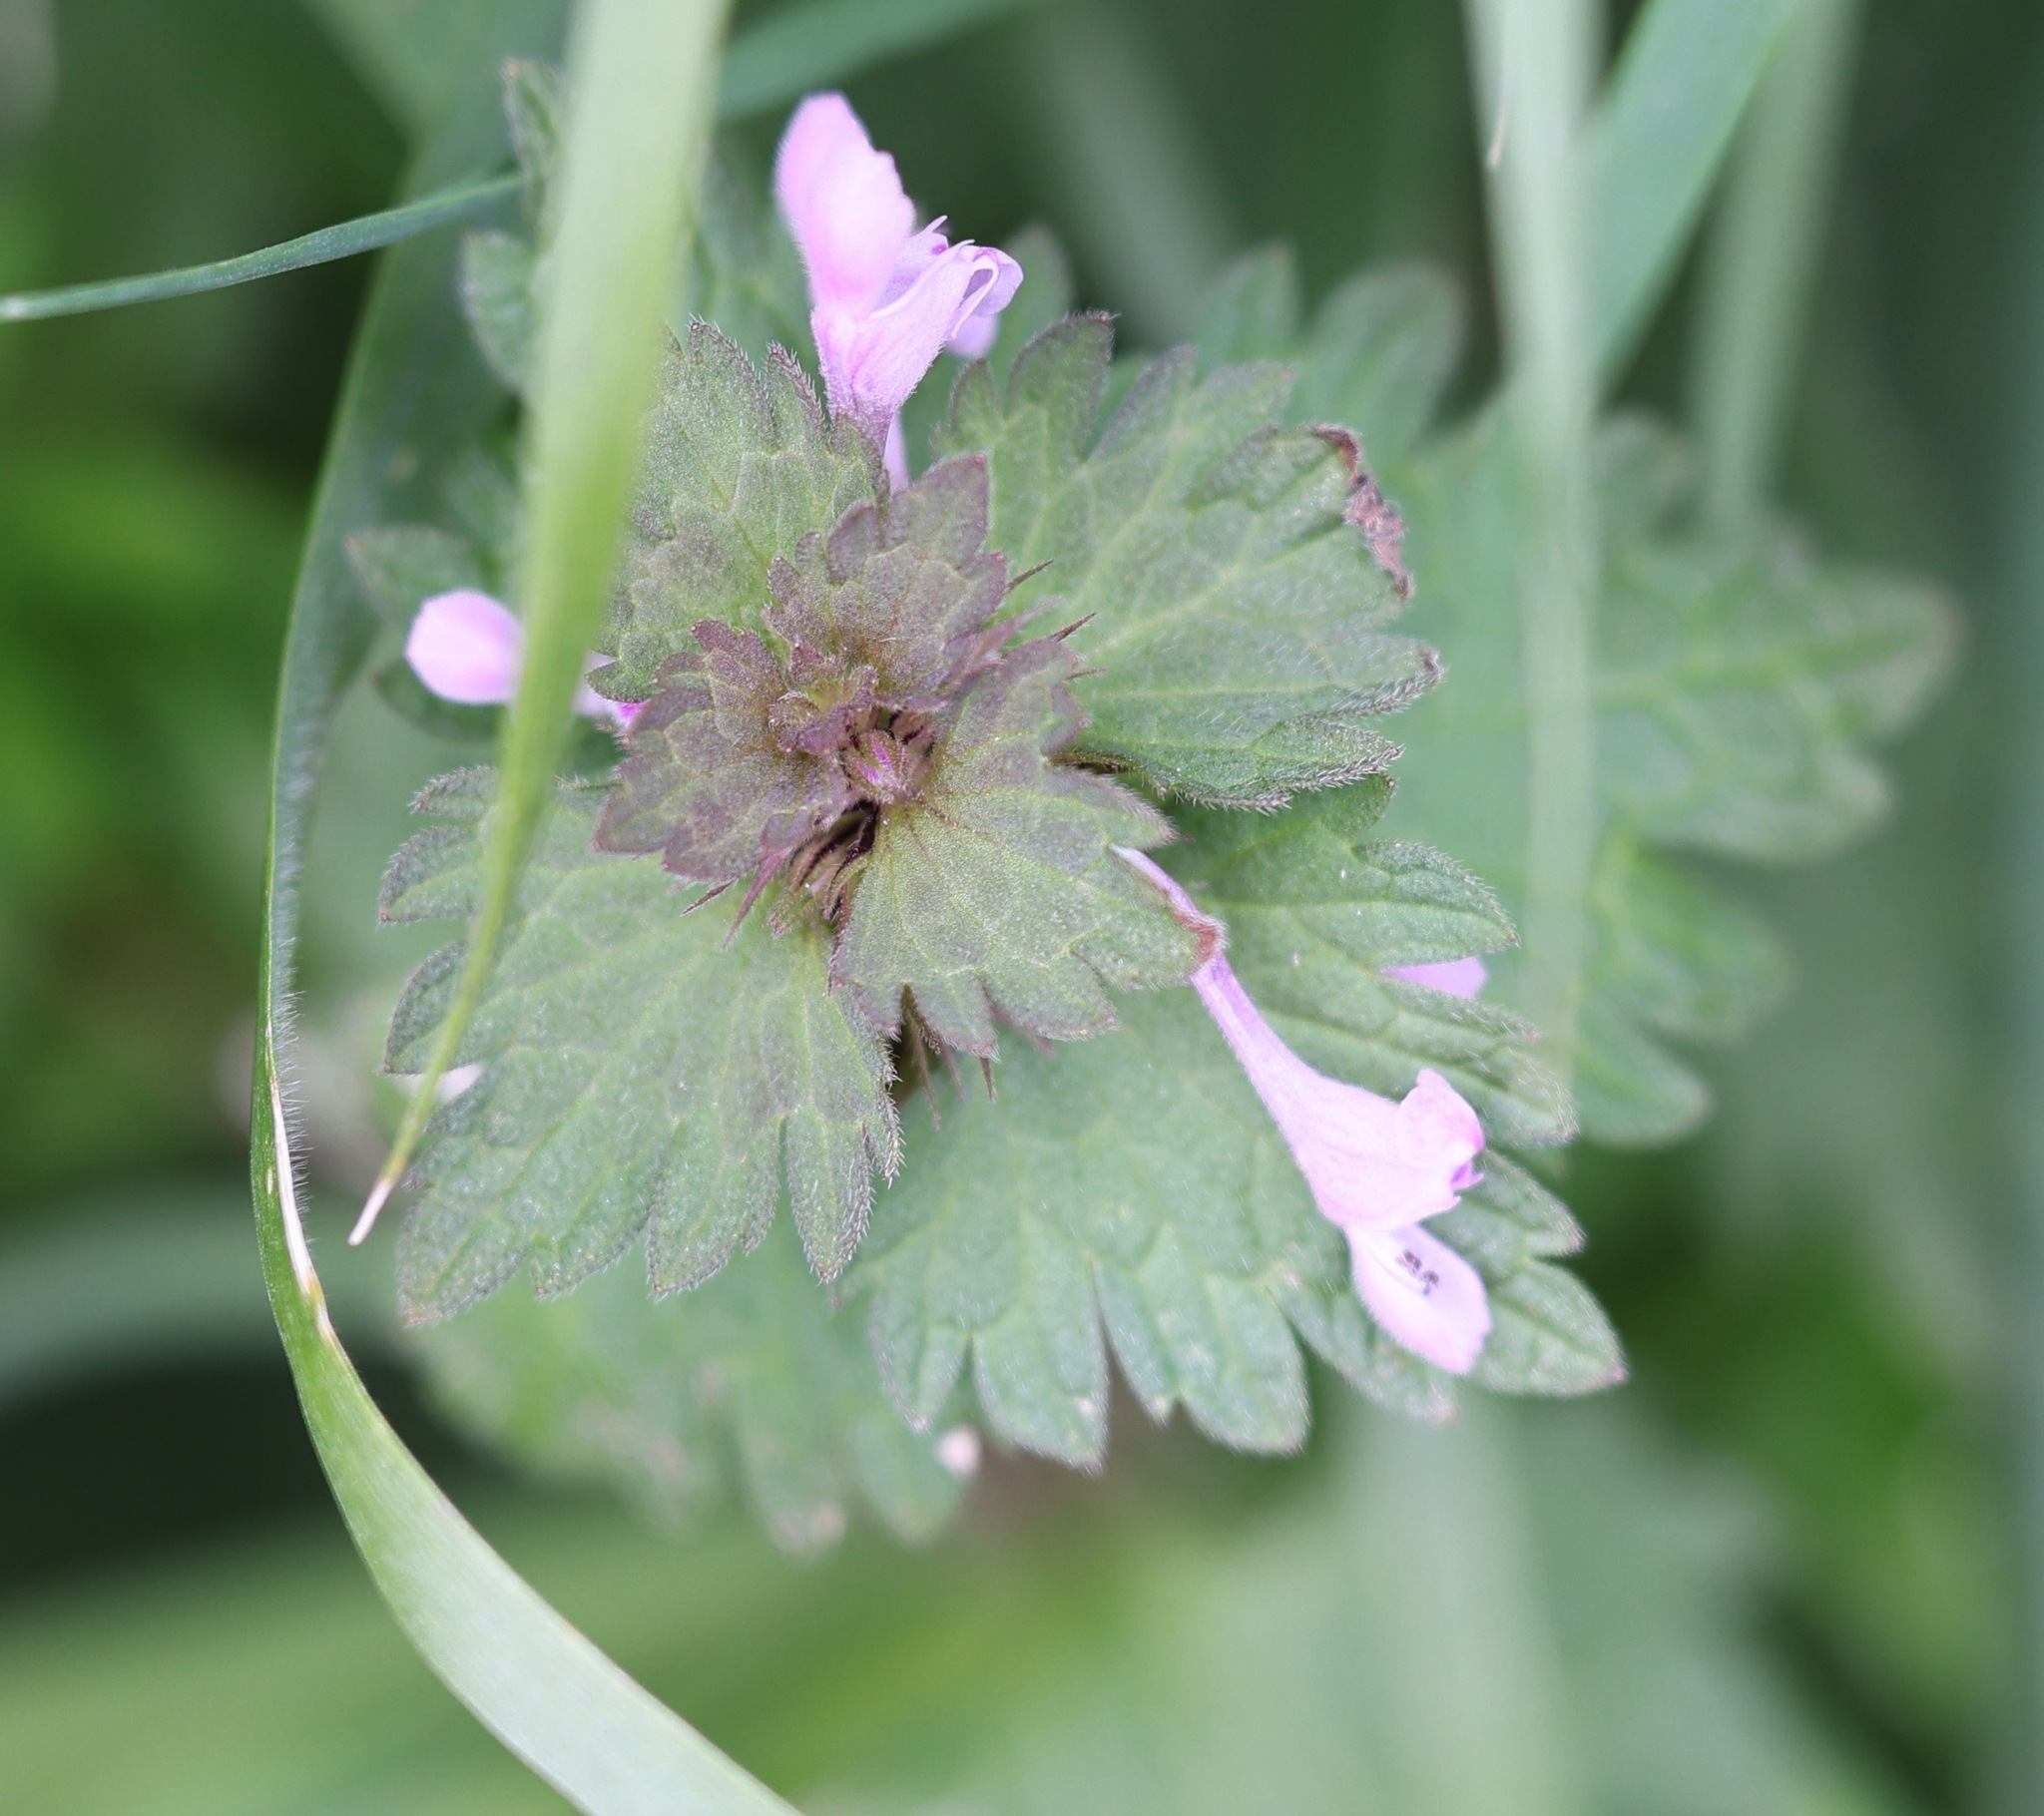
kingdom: Plantae
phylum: Tracheophyta
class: Magnoliopsida
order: Lamiales
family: Lamiaceae
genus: Lamium
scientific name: Lamium hybridum
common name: Cut-leaved dead-nettle
